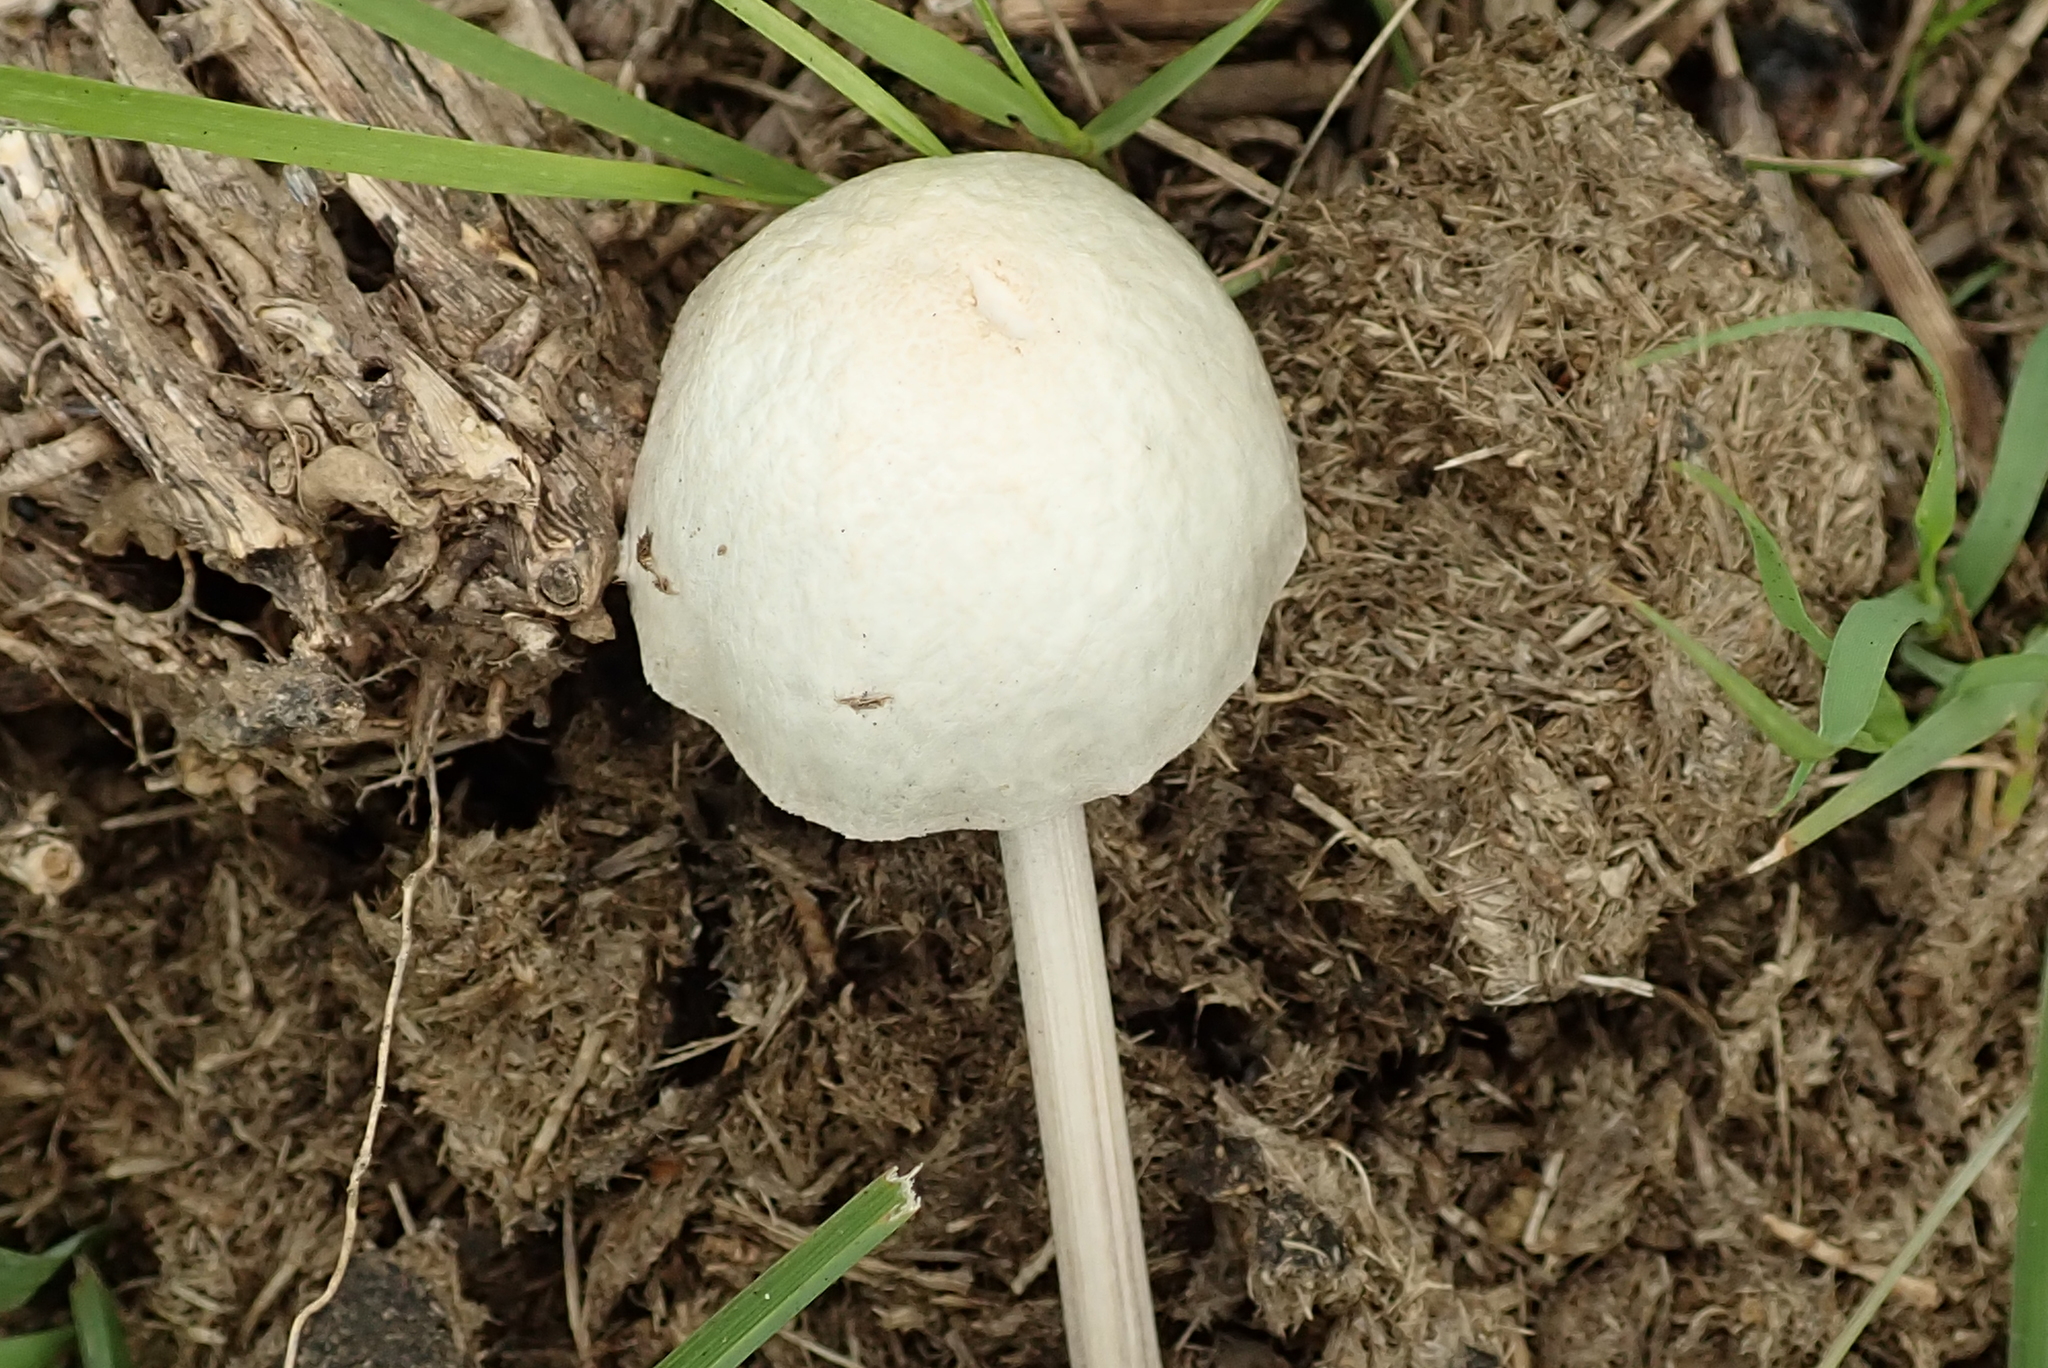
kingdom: Fungi
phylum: Basidiomycota
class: Agaricomycetes
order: Agaricales
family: Bolbitiaceae
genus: Panaeolus
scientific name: Panaeolus antillarum
